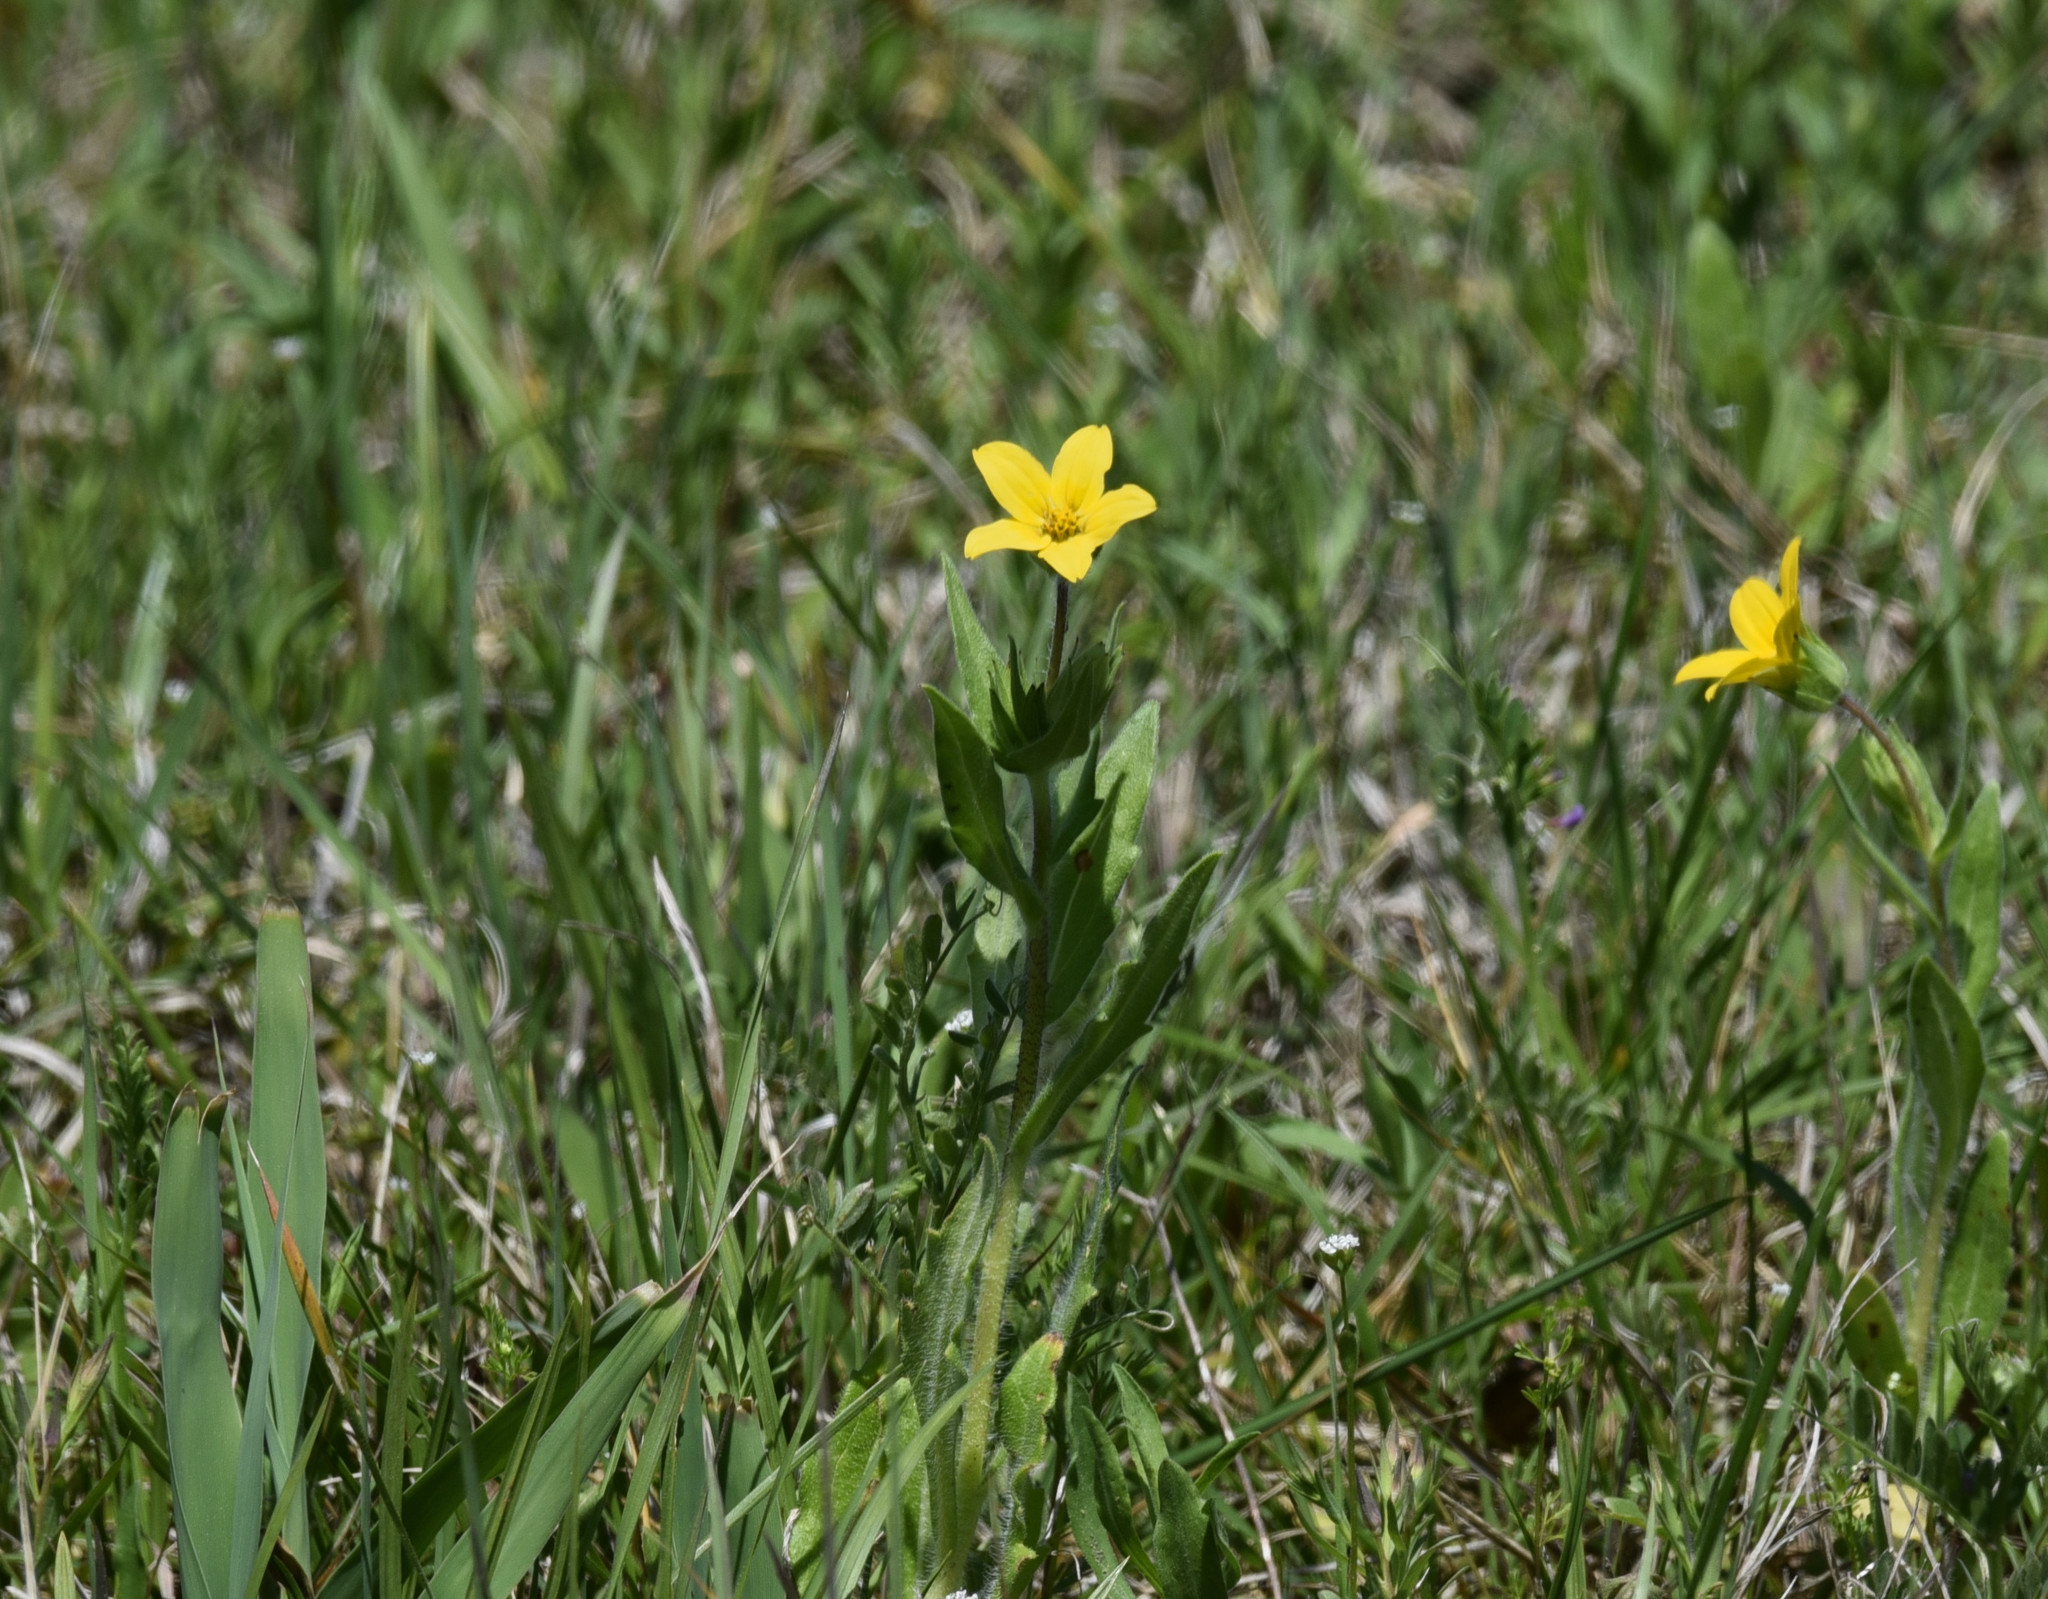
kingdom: Plantae
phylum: Tracheophyta
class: Magnoliopsida
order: Asterales
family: Asteraceae
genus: Lindheimera
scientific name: Lindheimera texana
